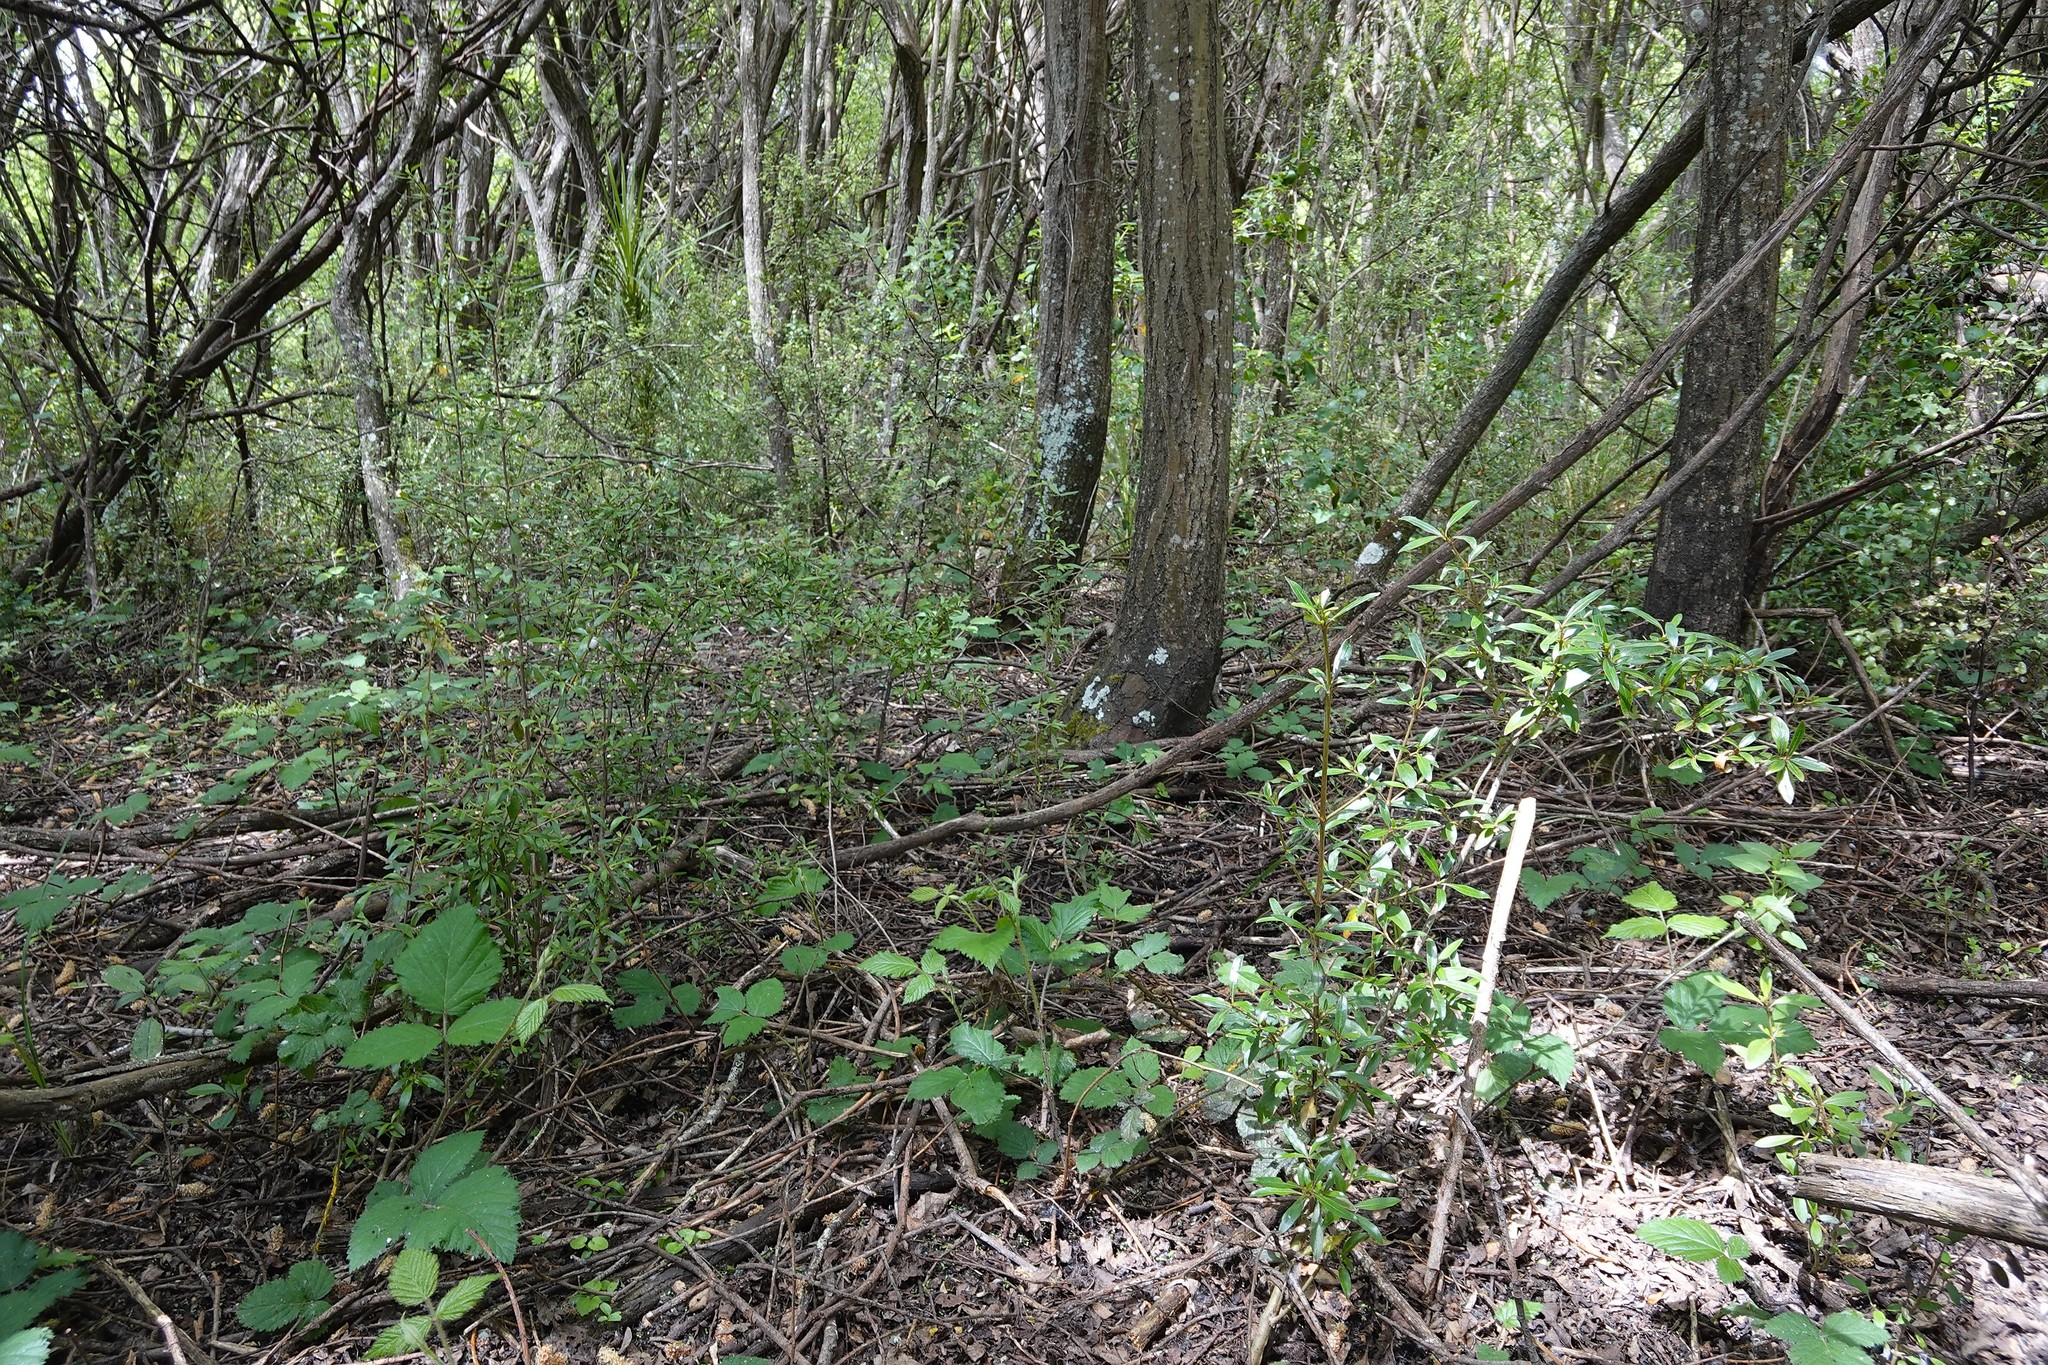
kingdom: Plantae
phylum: Tracheophyta
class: Magnoliopsida
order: Gentianales
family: Rubiaceae
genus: Coprosma
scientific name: Coprosma cunninghamii
